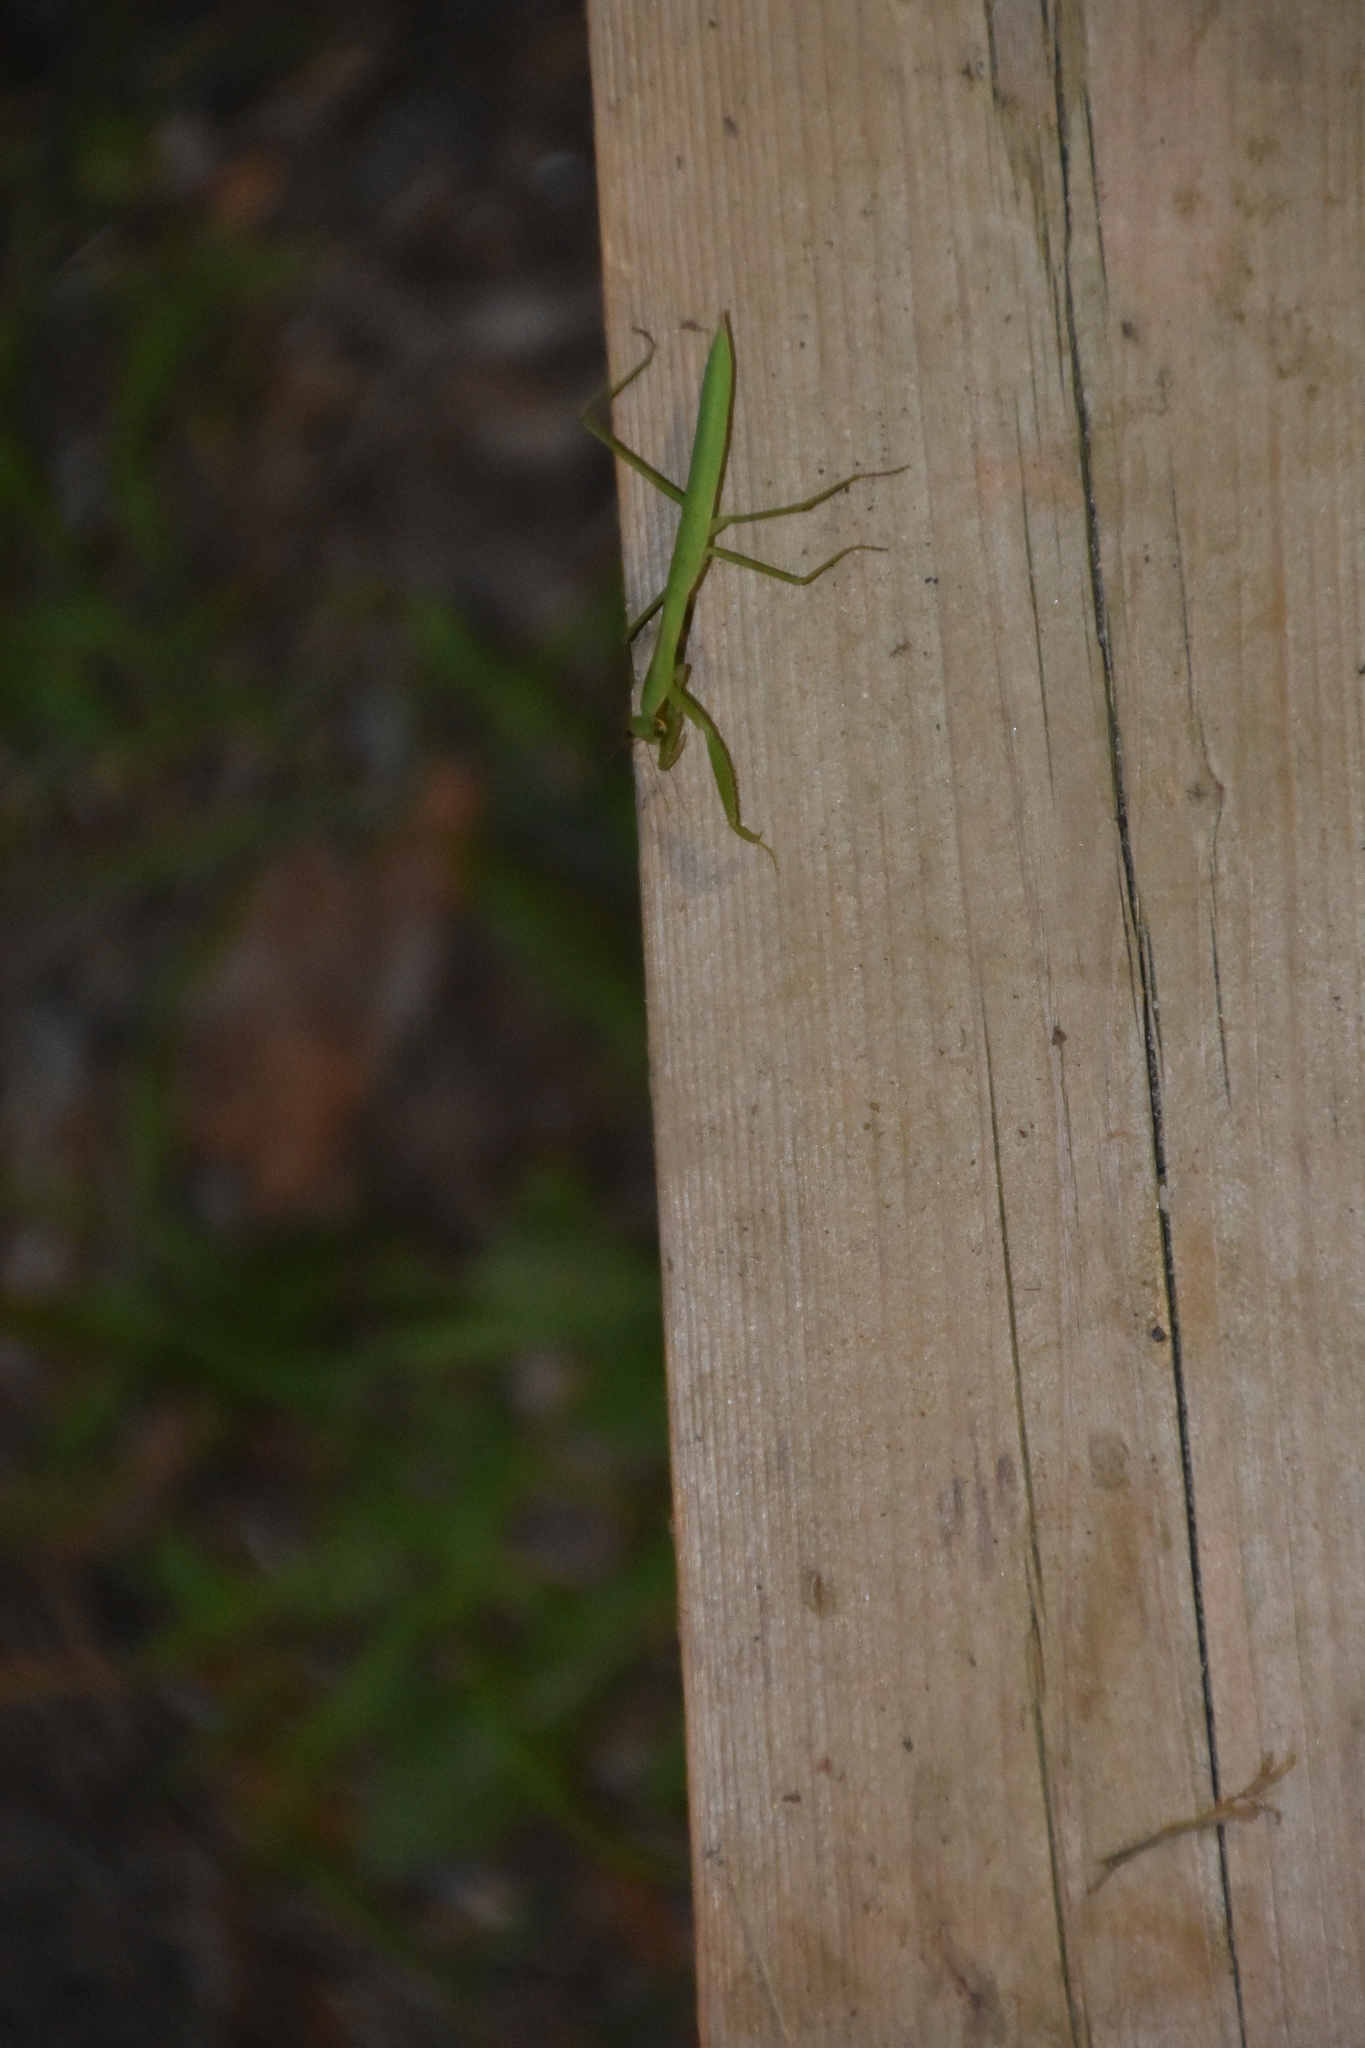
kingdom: Animalia
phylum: Arthropoda
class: Insecta
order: Mantodea
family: Mantidae
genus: Tenodera
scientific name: Tenodera sinensis
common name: Chinese mantis
